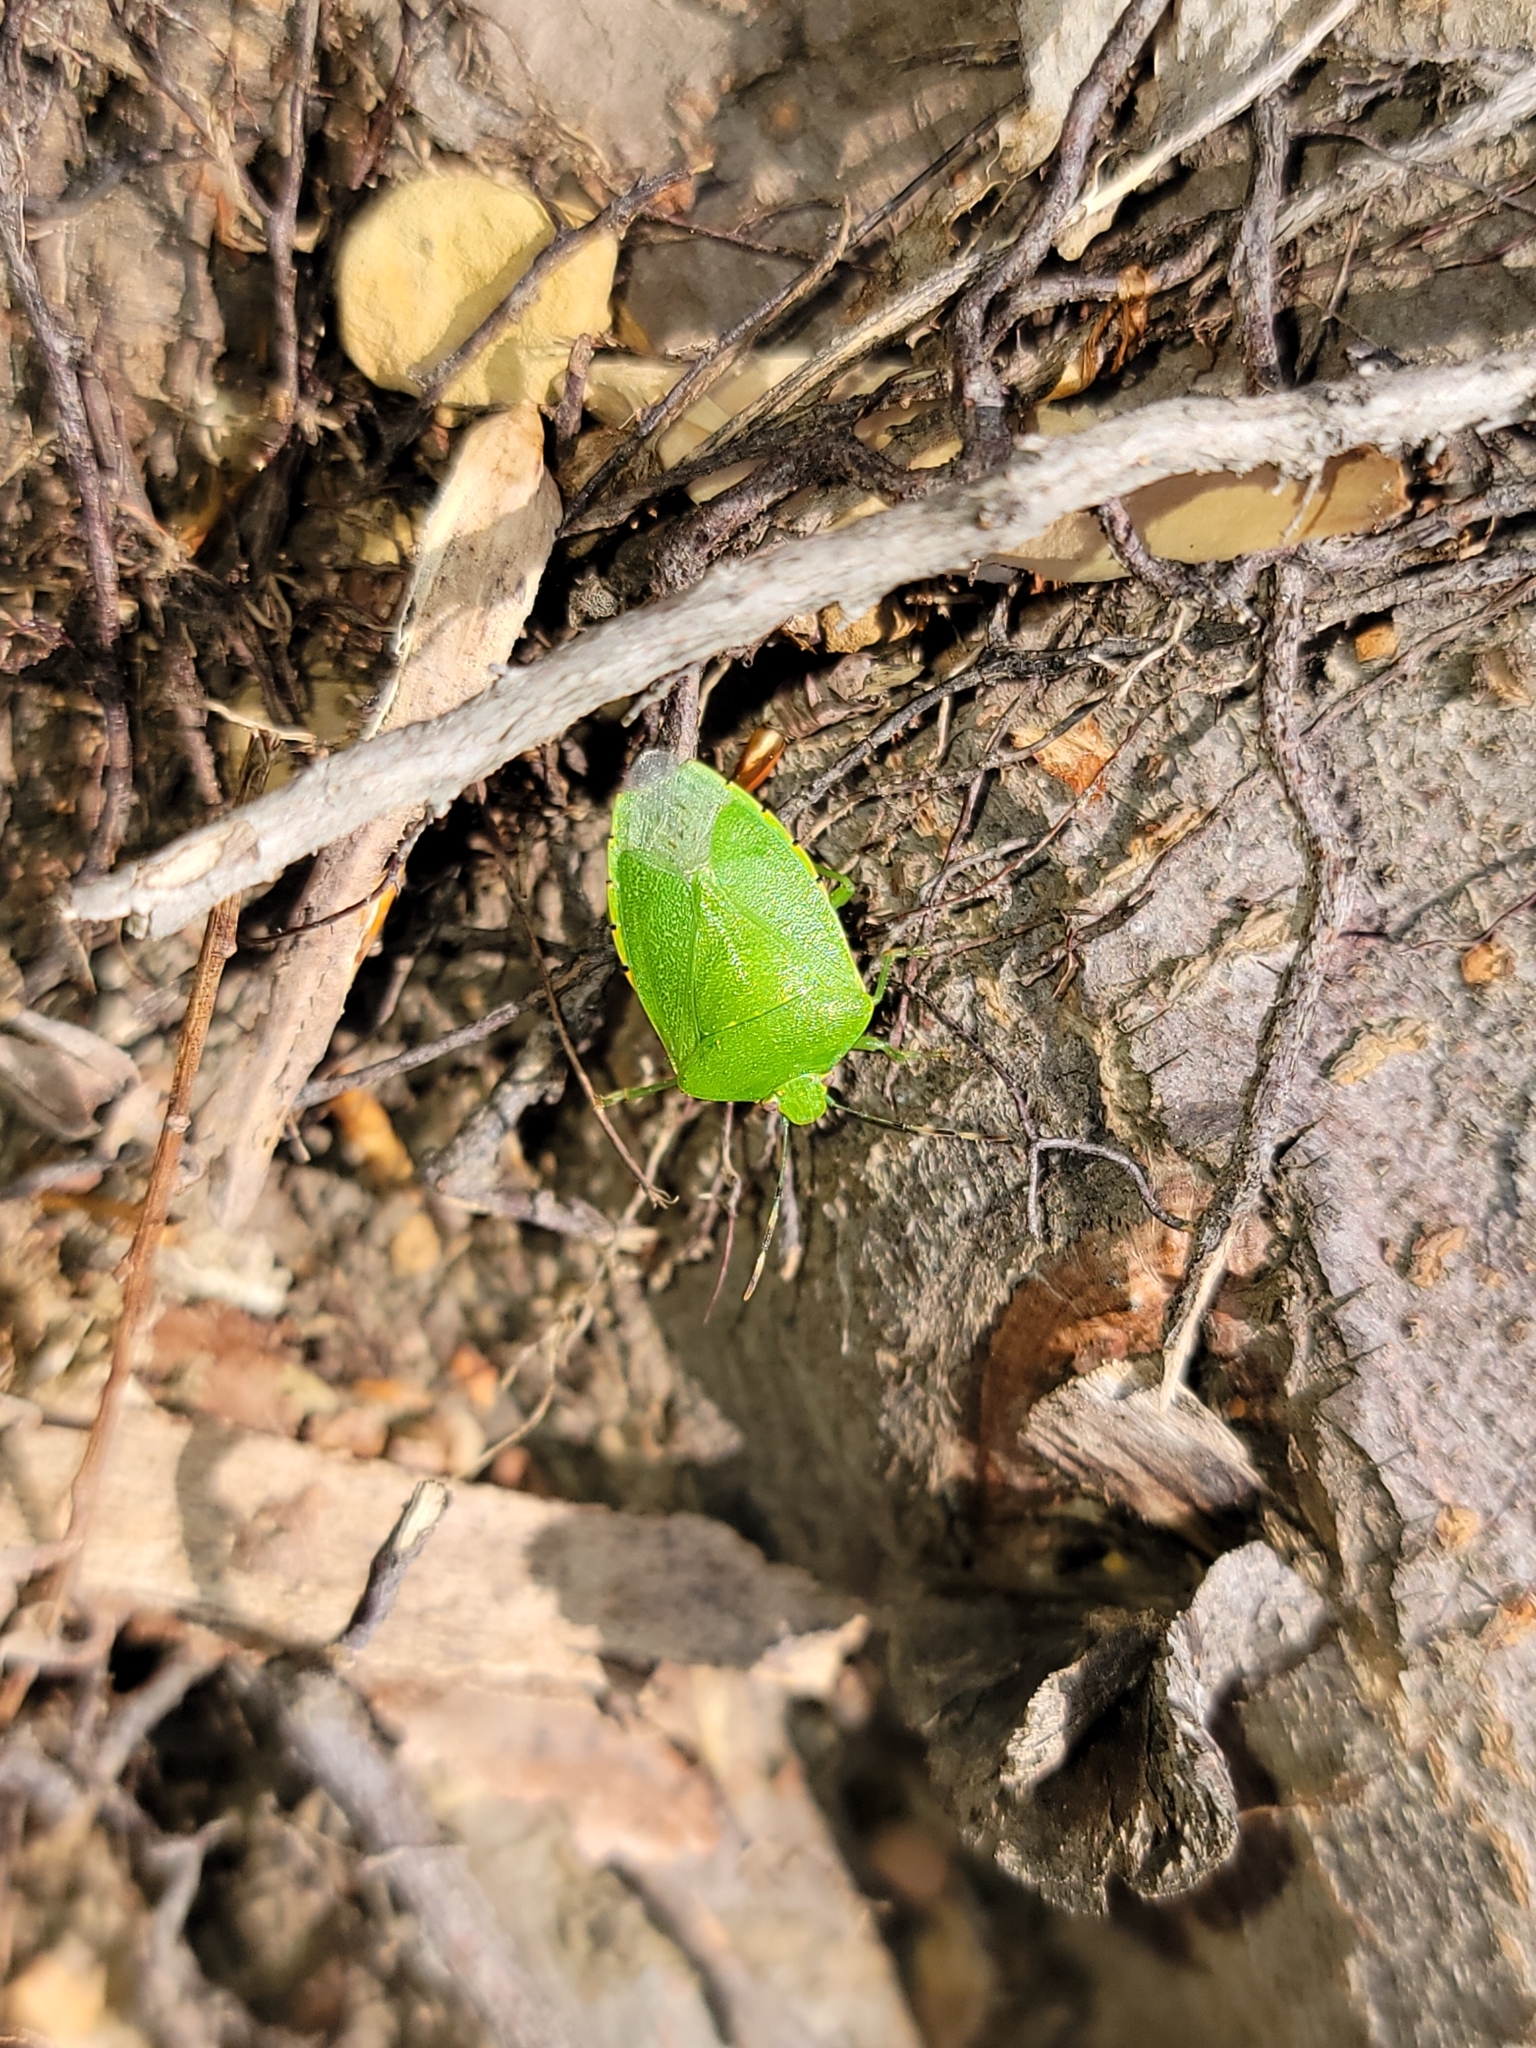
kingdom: Animalia
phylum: Arthropoda
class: Insecta
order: Hemiptera
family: Pentatomidae
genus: Chinavia
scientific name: Chinavia hilaris
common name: Green stink bug
